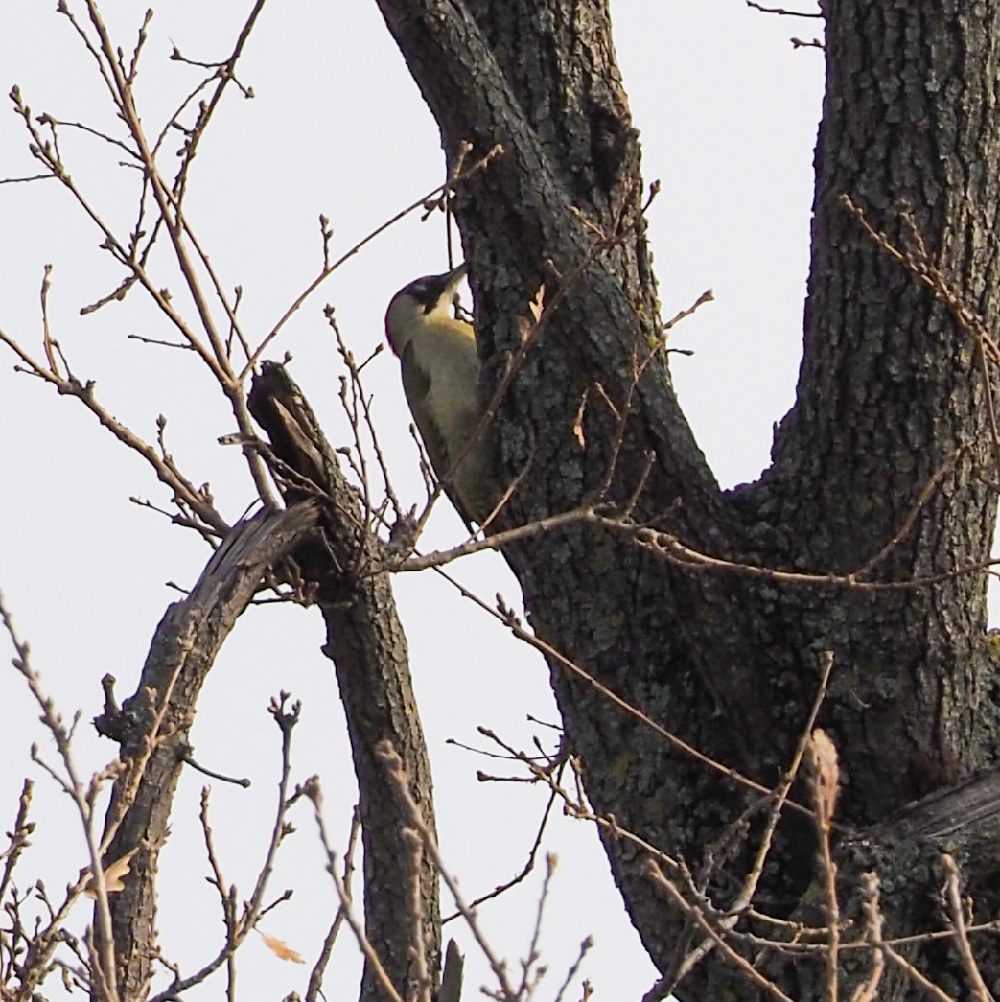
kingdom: Animalia
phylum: Chordata
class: Aves
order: Piciformes
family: Picidae
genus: Picus
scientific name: Picus viridis
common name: European green woodpecker
